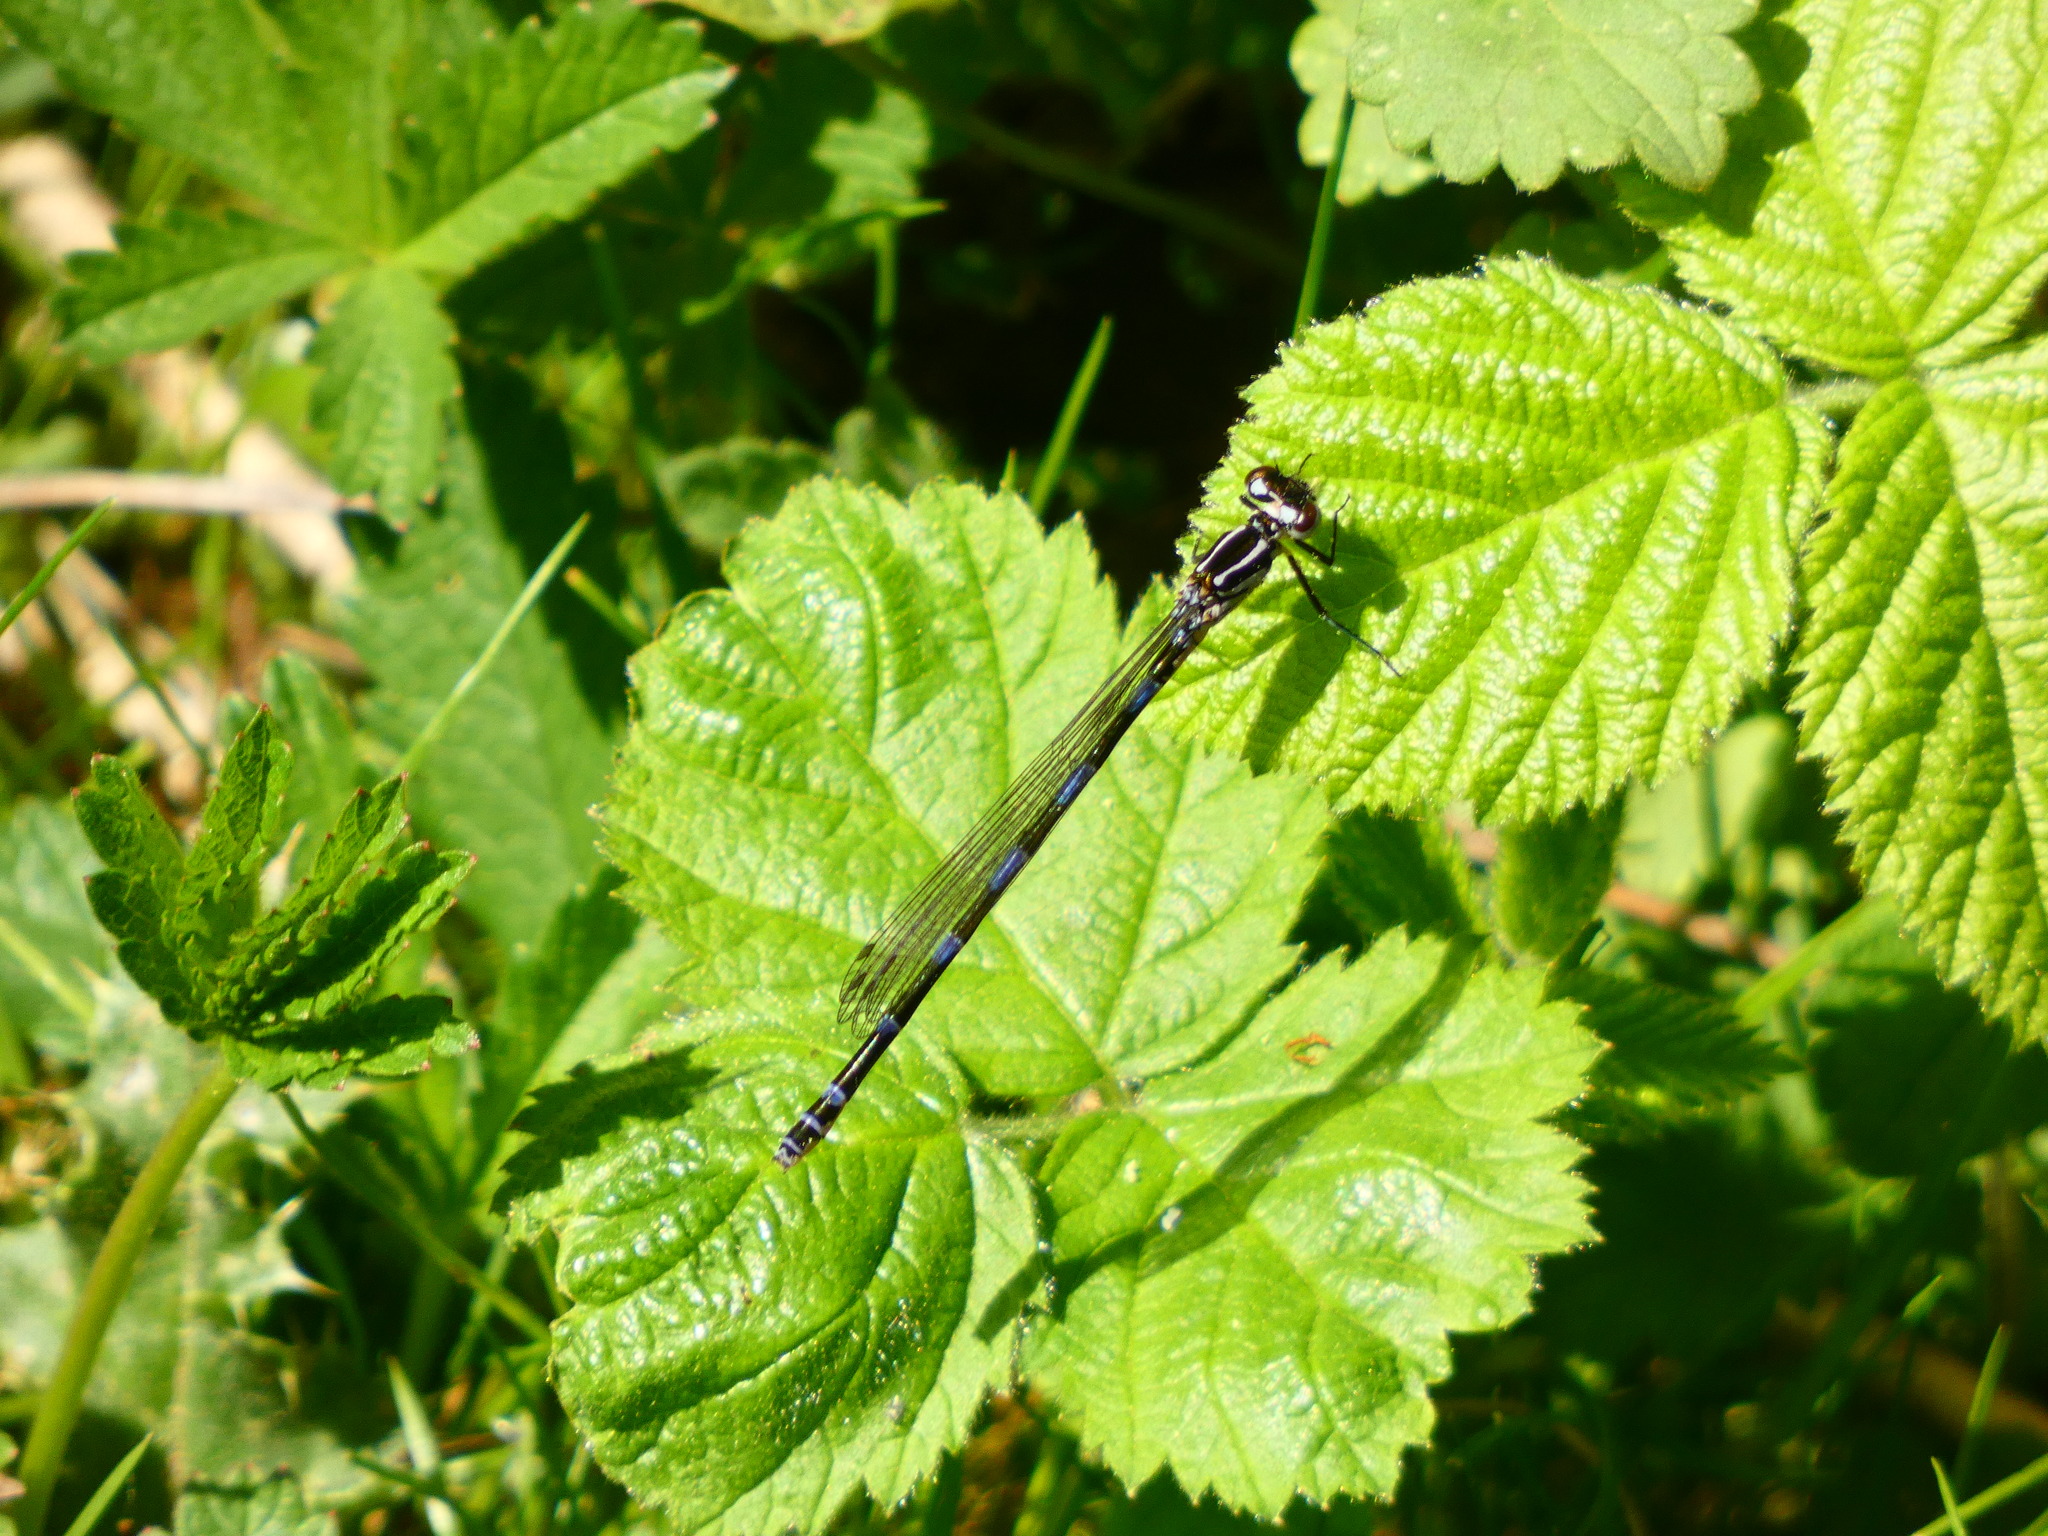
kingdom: Animalia
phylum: Arthropoda
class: Insecta
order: Odonata
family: Coenagrionidae
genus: Coenagrion
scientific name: Coenagrion pulchellum
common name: Variable bluet
